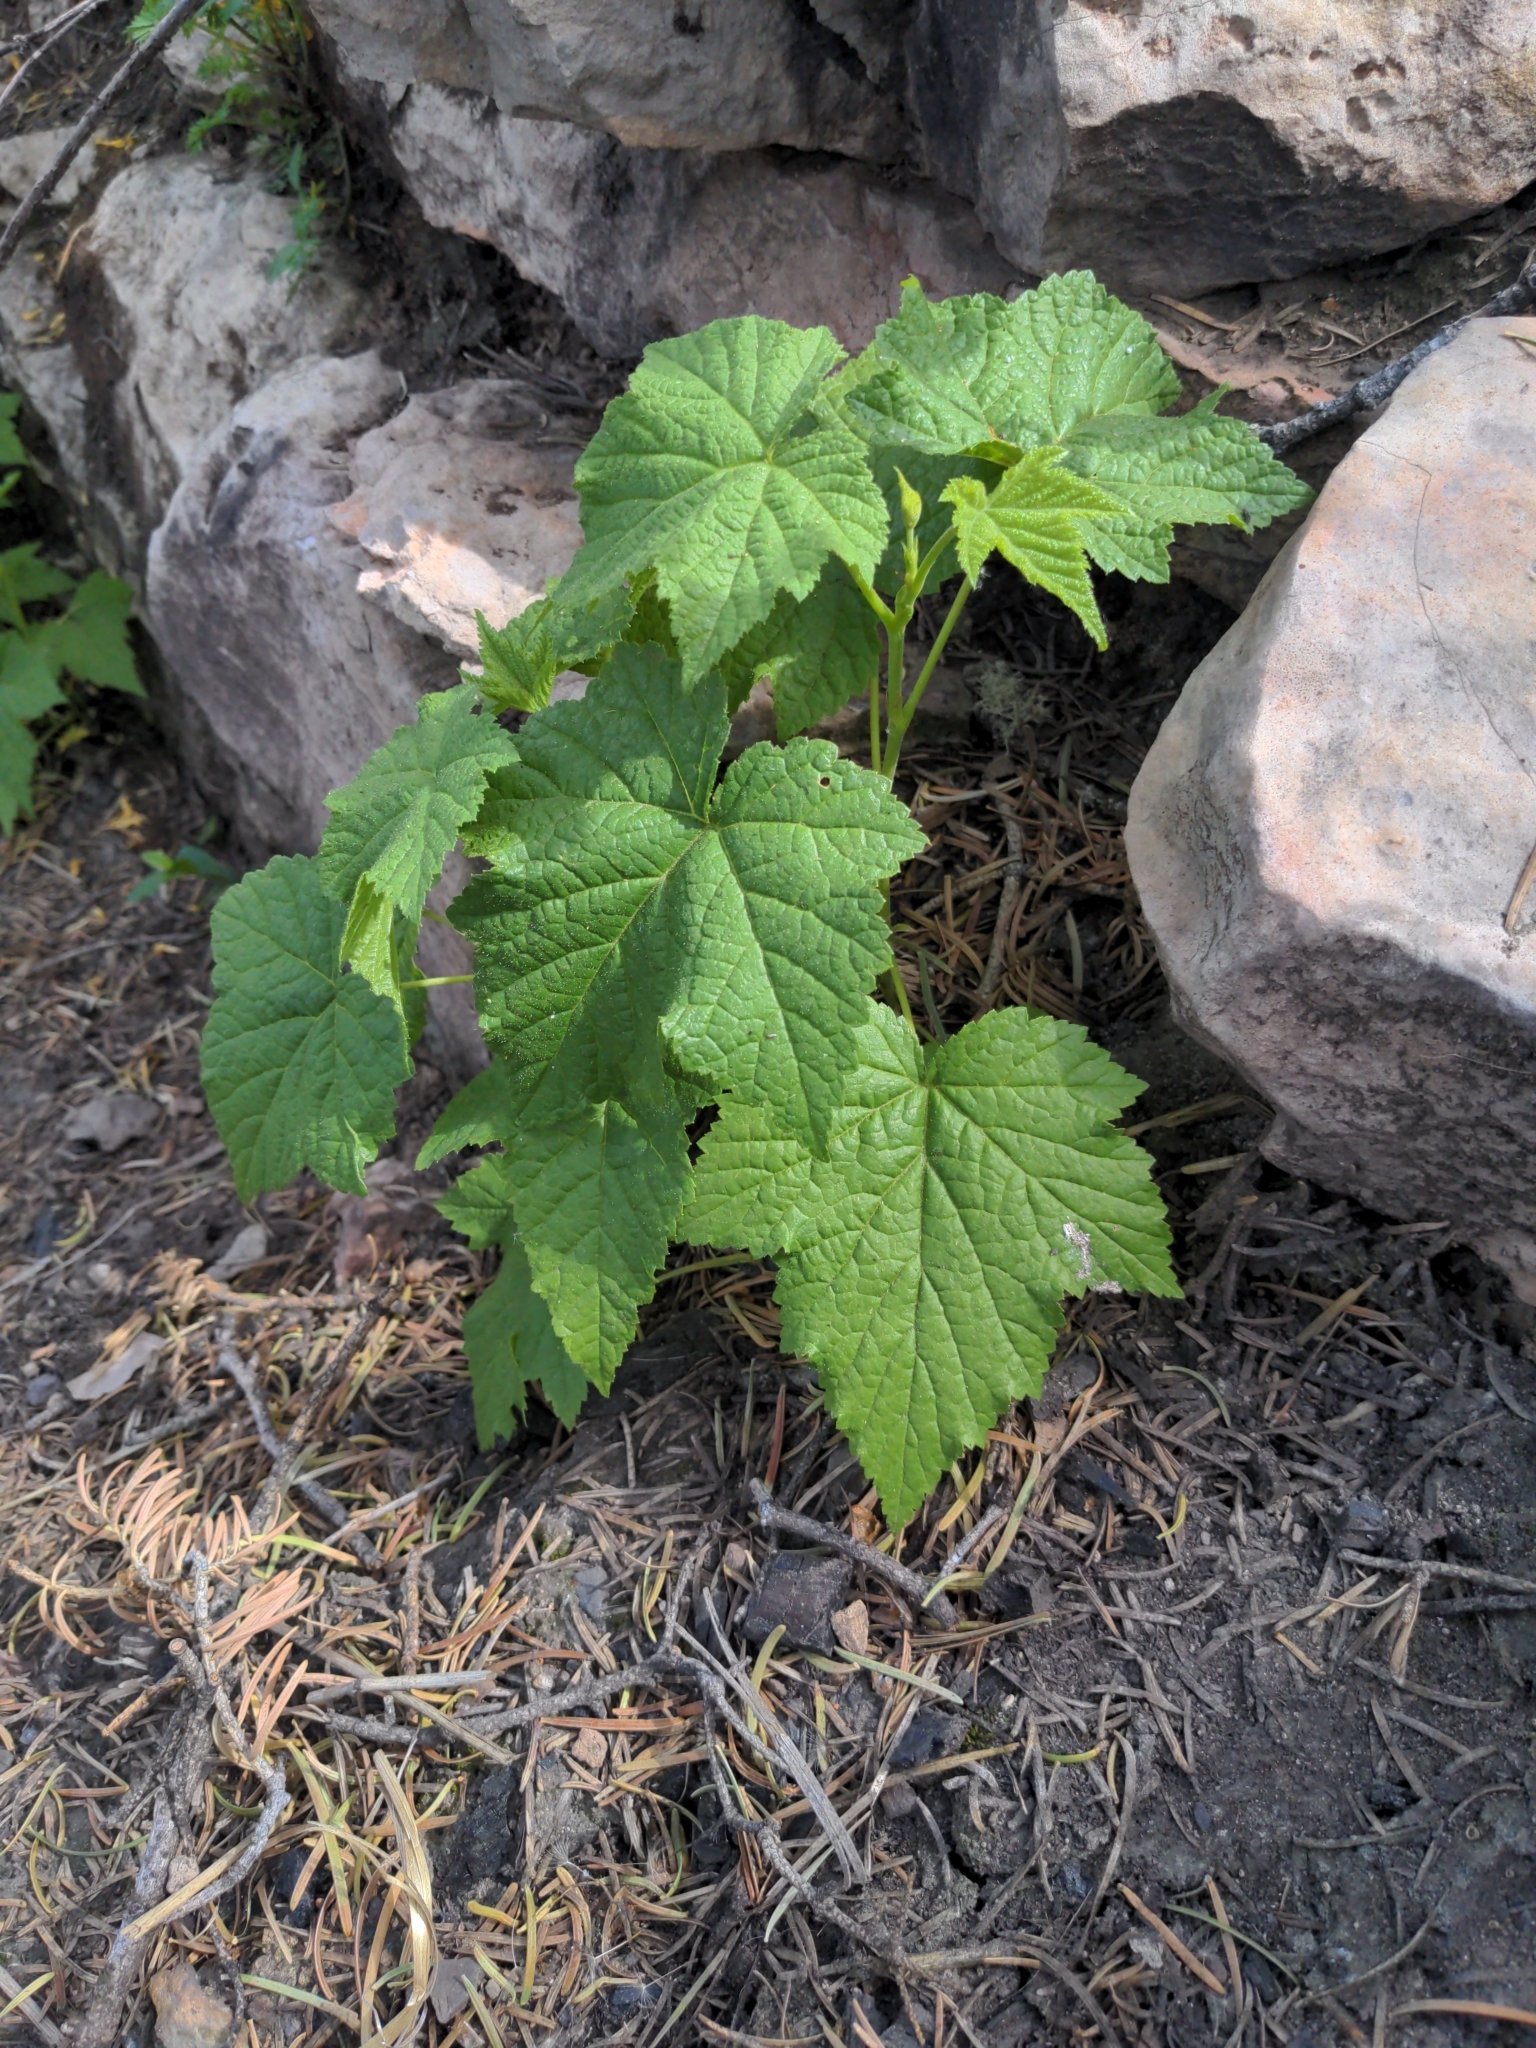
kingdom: Plantae
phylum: Tracheophyta
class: Magnoliopsida
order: Rosales
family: Rosaceae
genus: Rubus
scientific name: Rubus parviflorus
